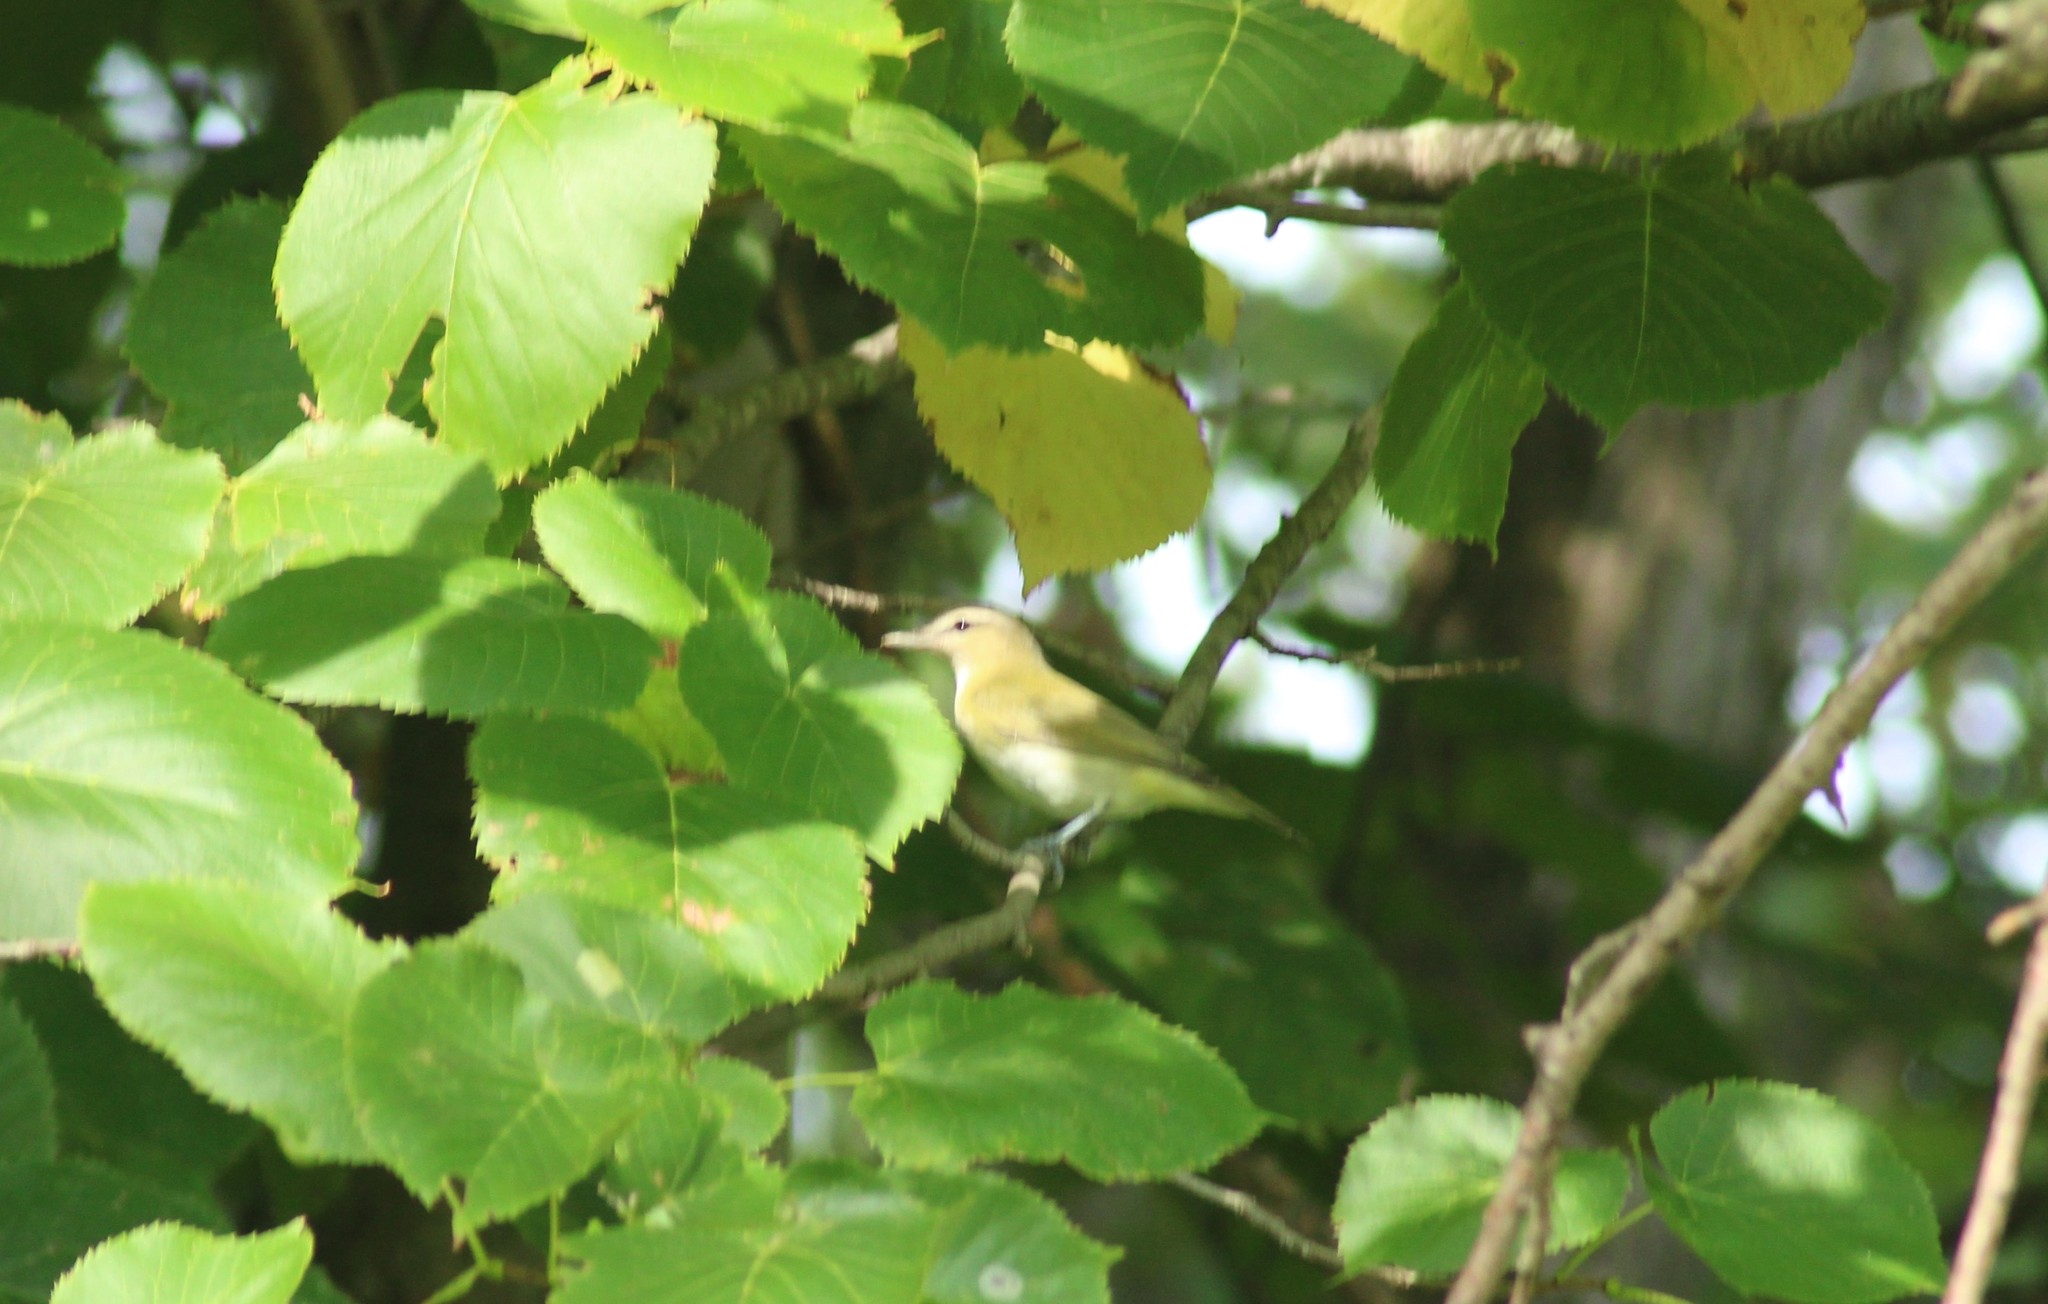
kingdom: Animalia
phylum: Chordata
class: Aves
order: Passeriformes
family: Vireonidae
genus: Vireo
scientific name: Vireo olivaceus
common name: Red-eyed vireo
